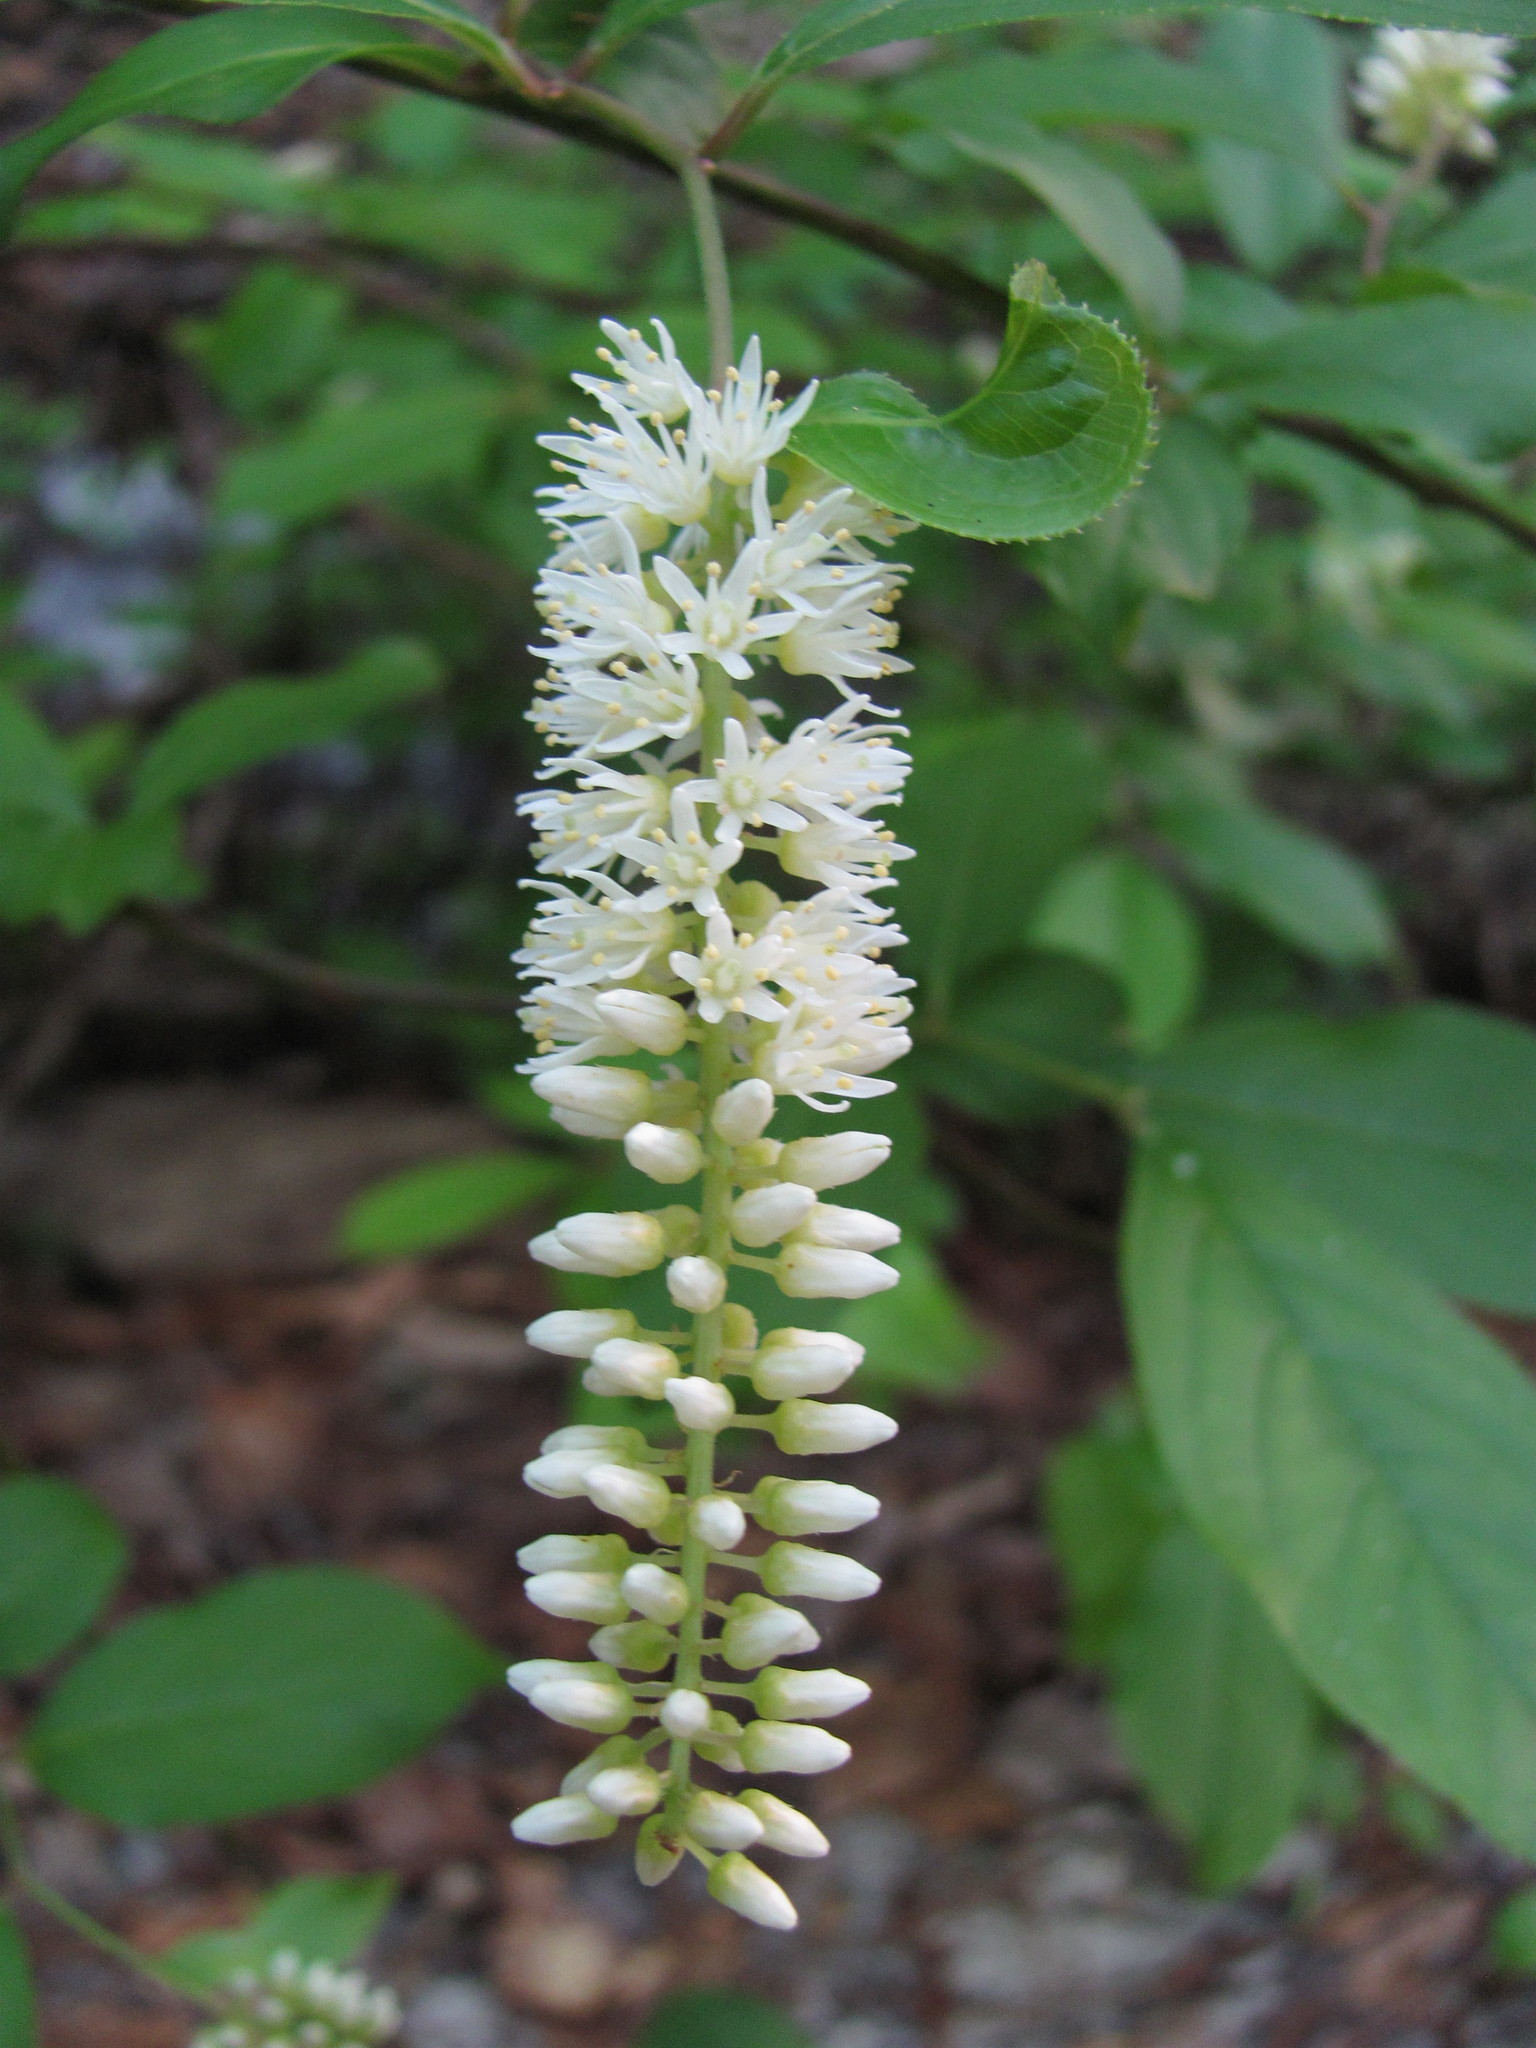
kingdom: Plantae
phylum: Tracheophyta
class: Magnoliopsida
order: Saxifragales
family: Iteaceae
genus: Itea
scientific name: Itea virginica
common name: Sweetspire
